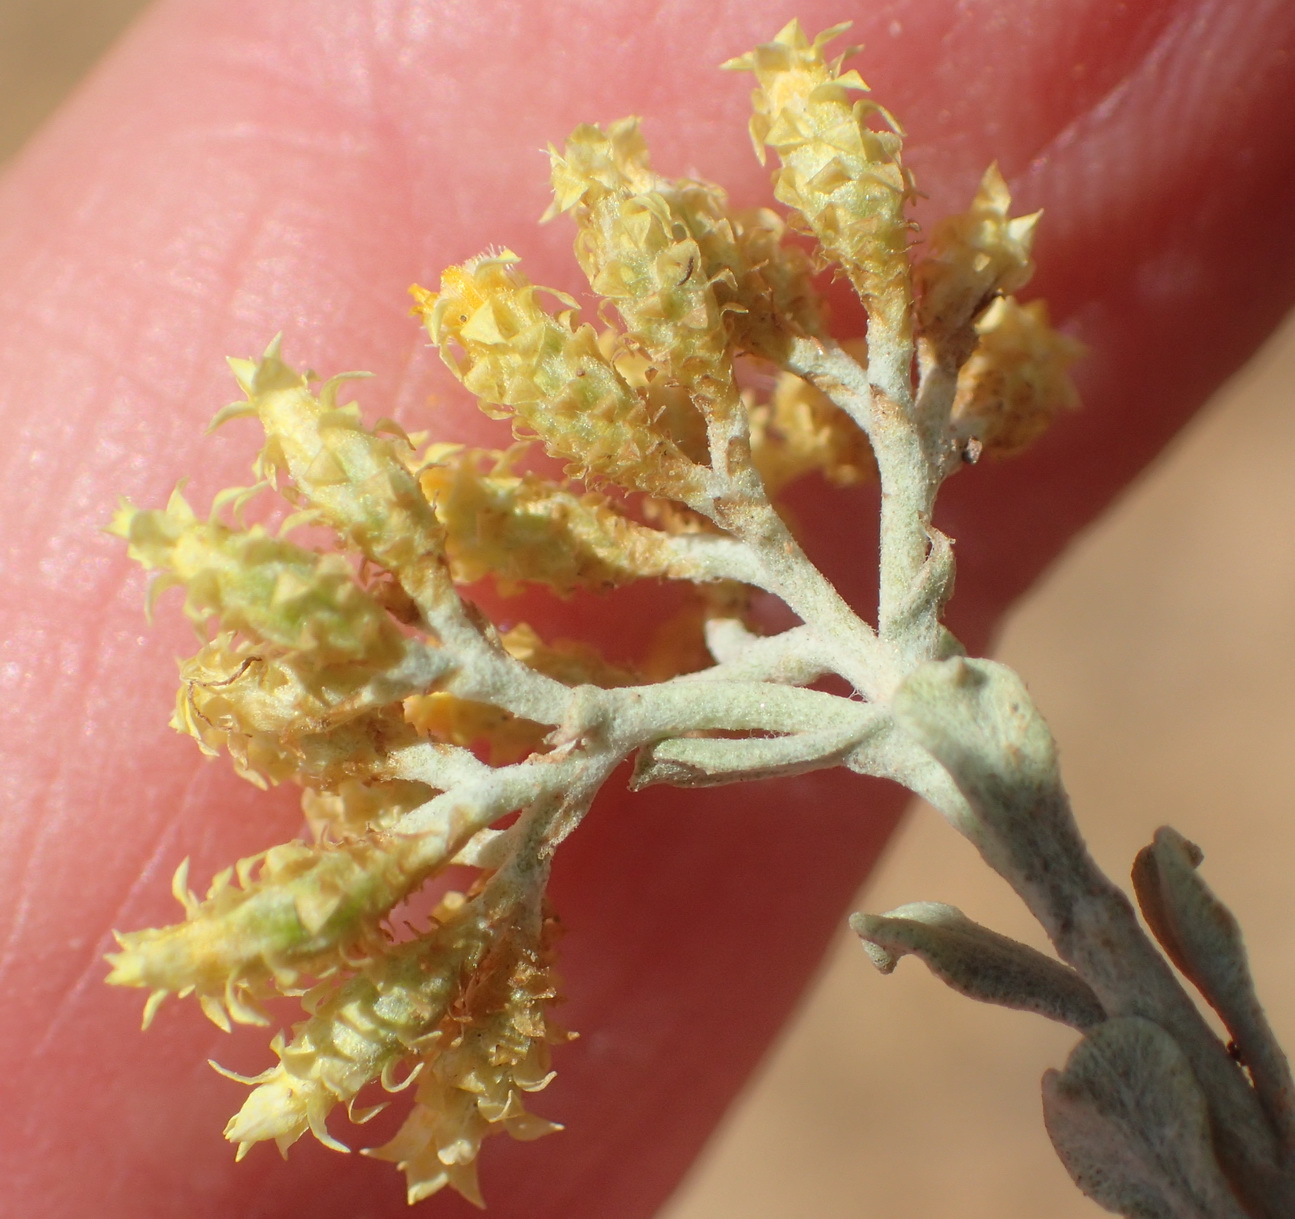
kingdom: Plantae
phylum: Tracheophyta
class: Magnoliopsida
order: Asterales
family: Asteraceae
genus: Helichrysum
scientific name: Helichrysum excisum
